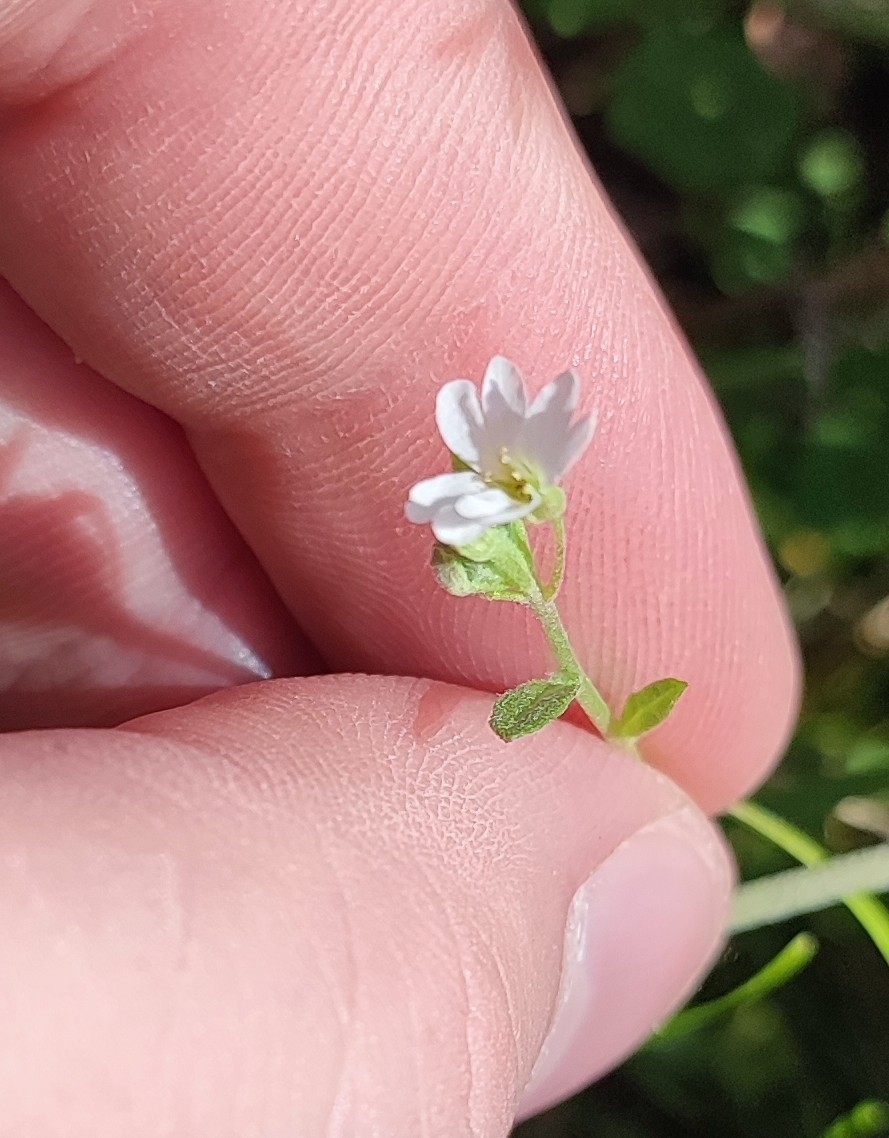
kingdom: Plantae
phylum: Tracheophyta
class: Magnoliopsida
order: Brassicales
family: Brassicaceae
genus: Berteroa
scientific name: Berteroa incana
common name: Hoary alison
